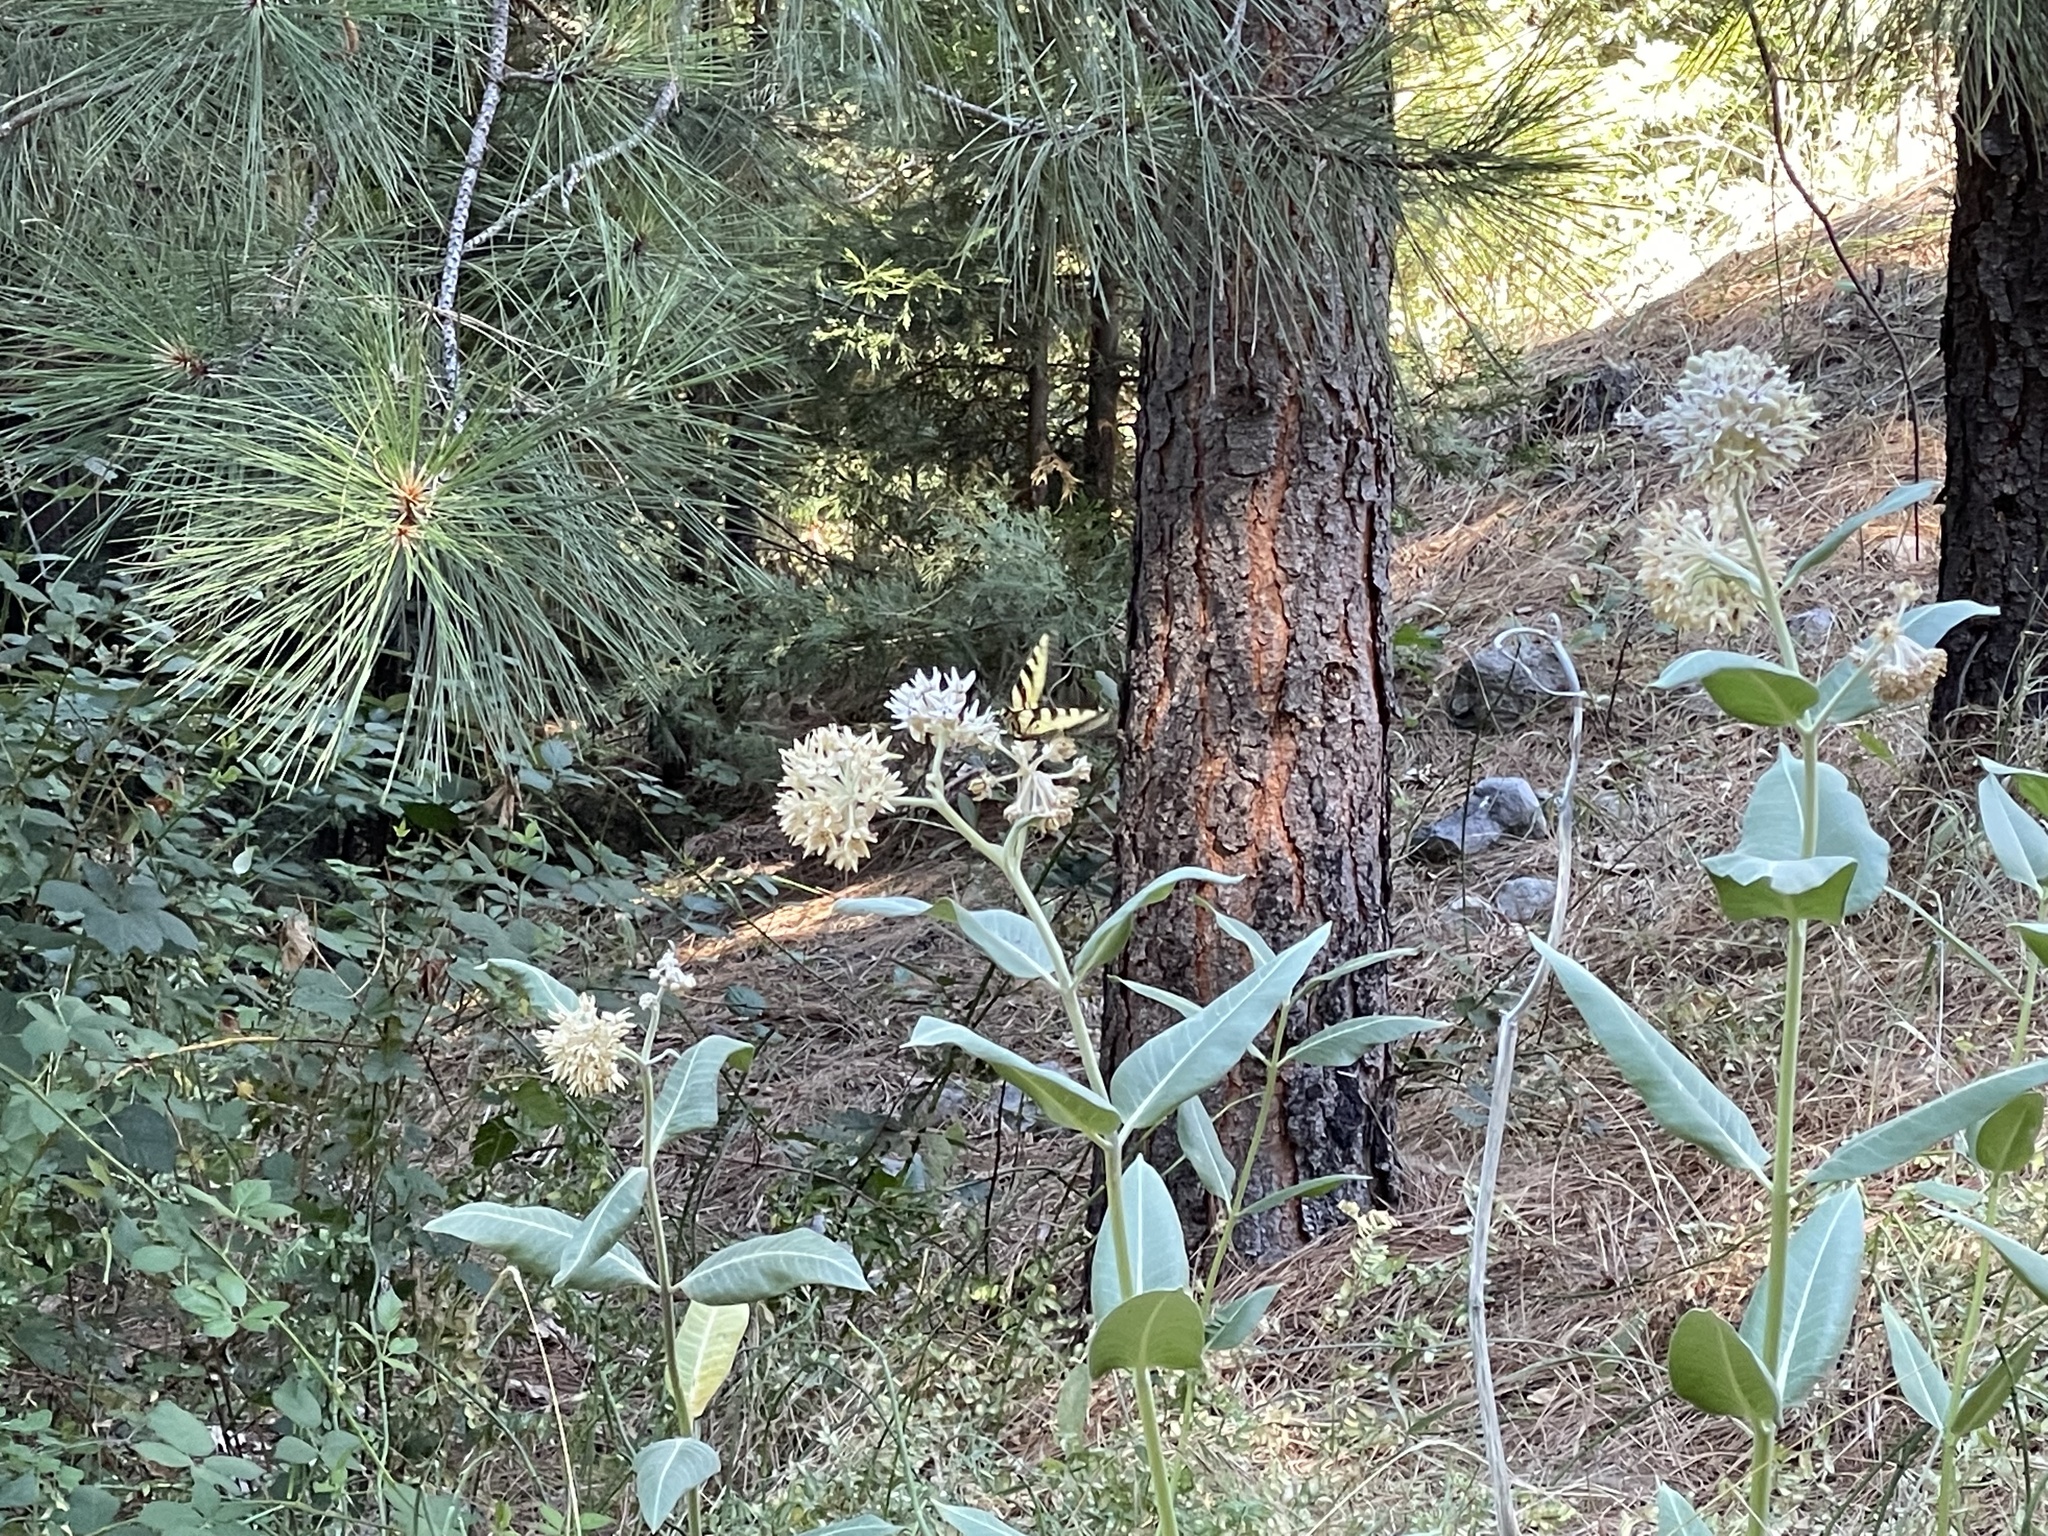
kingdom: Animalia
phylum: Arthropoda
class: Insecta
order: Lepidoptera
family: Papilionidae
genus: Papilio
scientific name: Papilio rutulus
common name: Western tiger swallowtail
